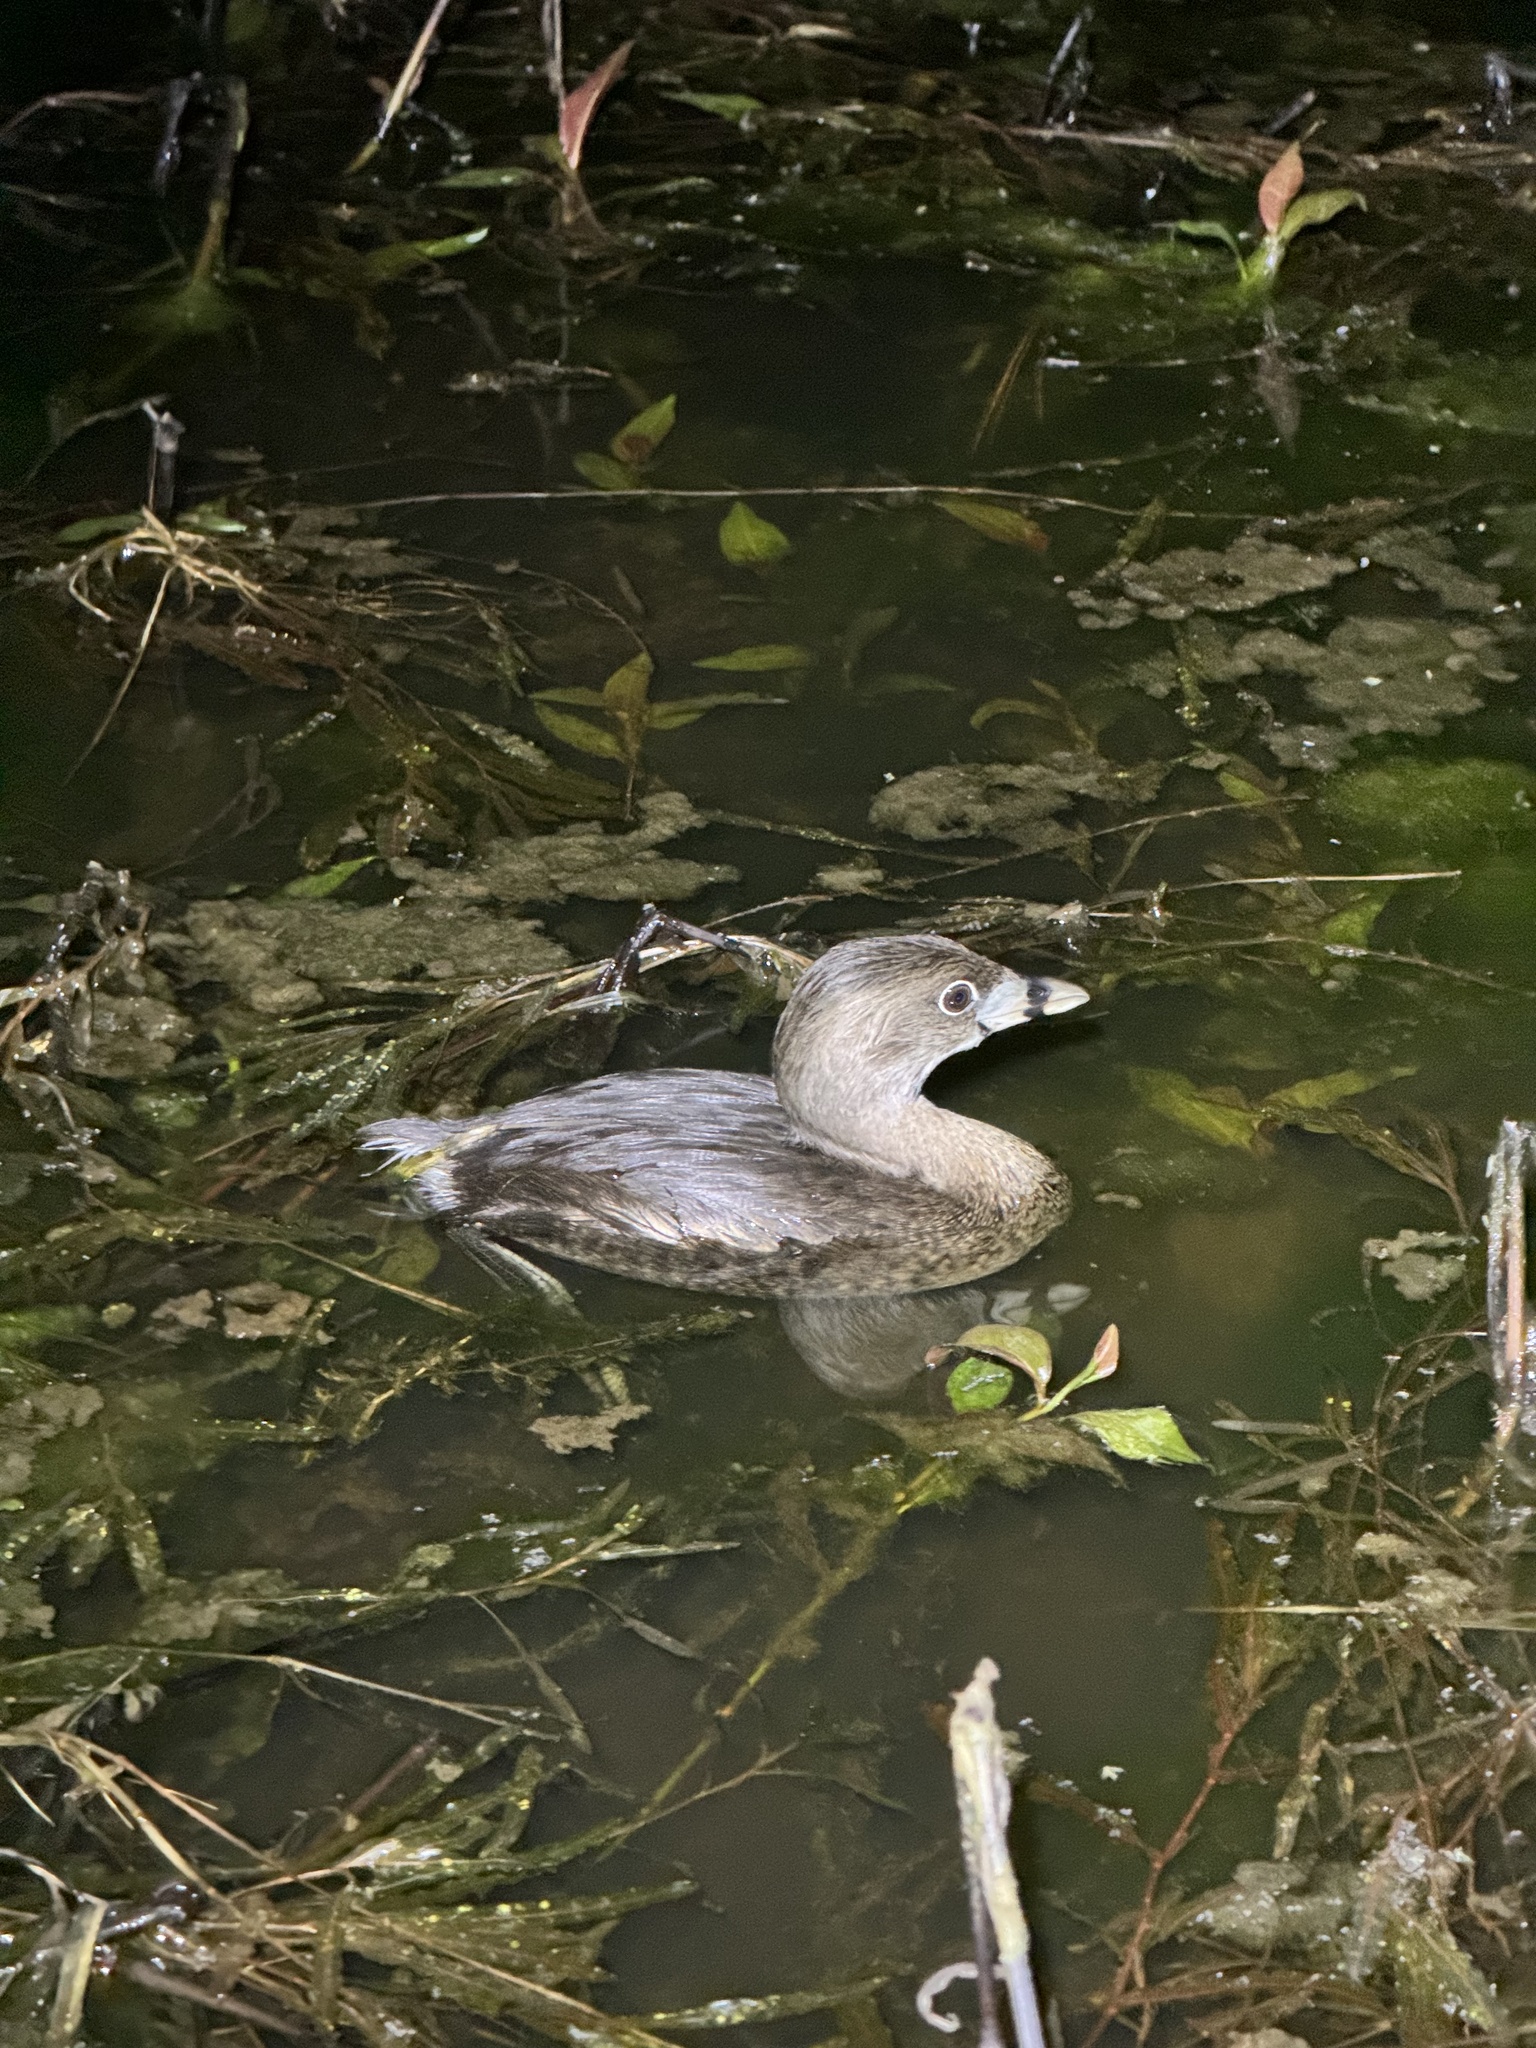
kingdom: Animalia
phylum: Chordata
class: Aves
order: Podicipediformes
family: Podicipedidae
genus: Podilymbus
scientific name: Podilymbus podiceps
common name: Pied-billed grebe
